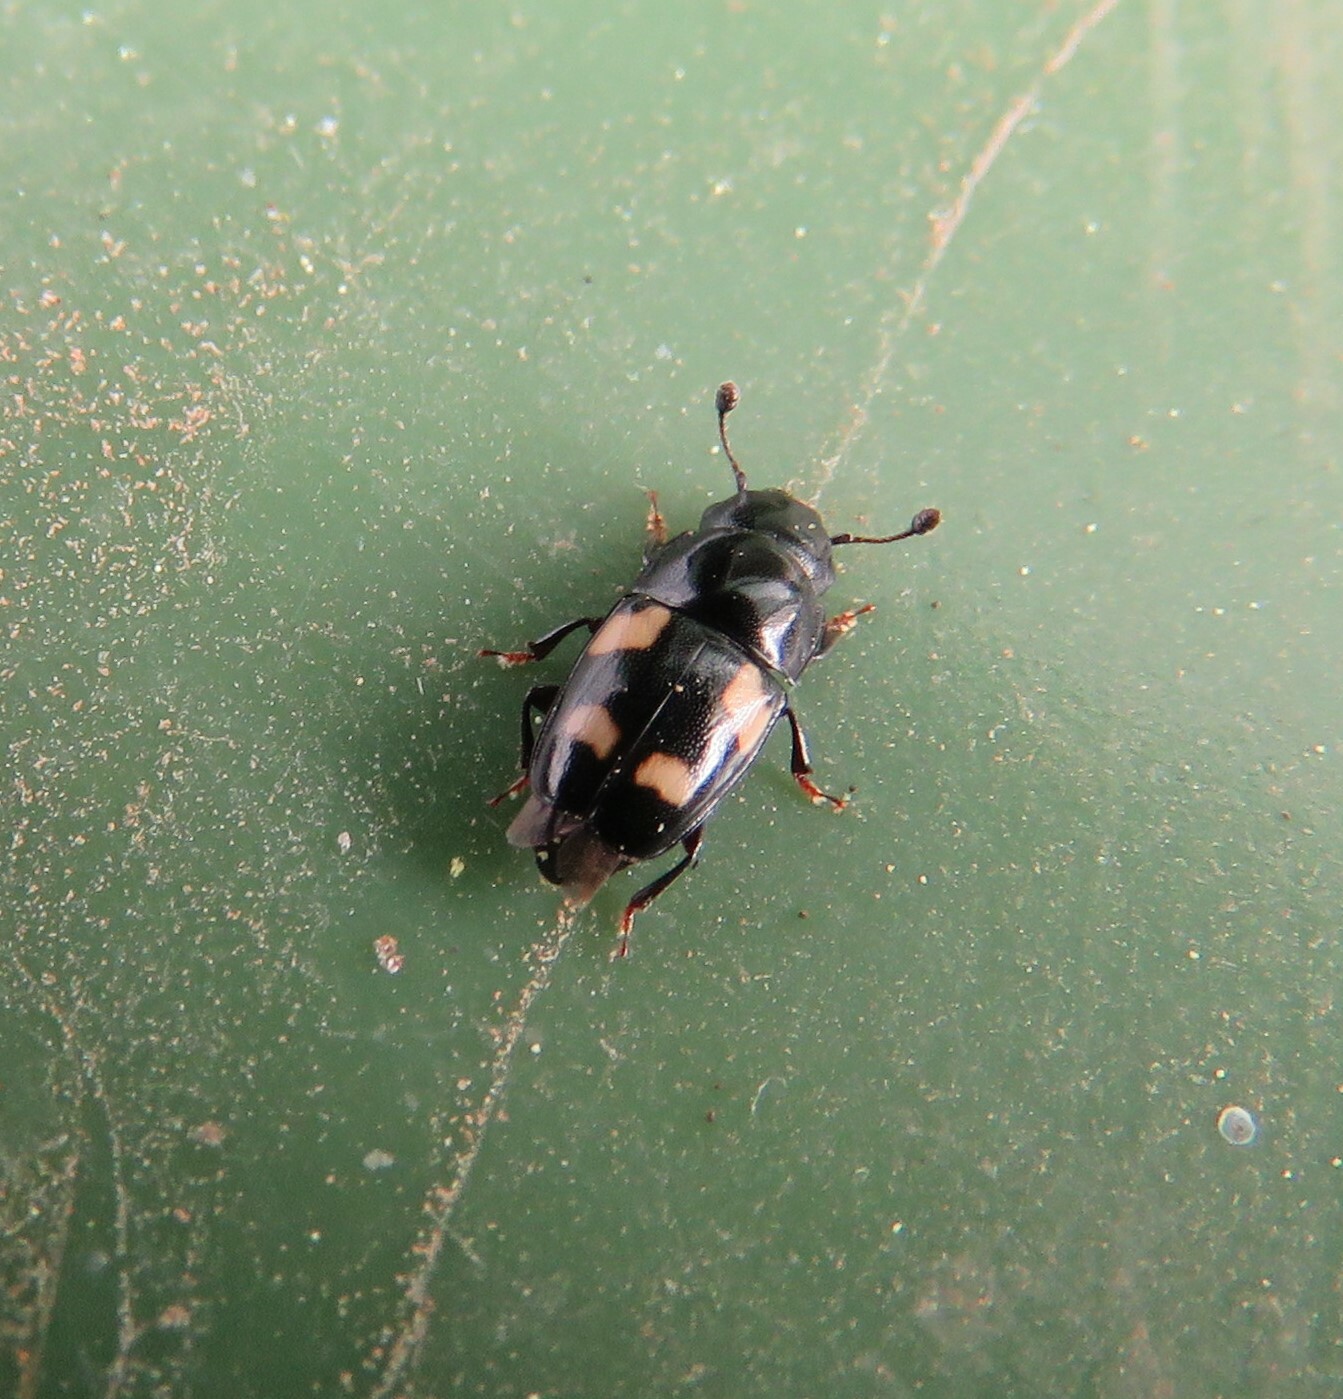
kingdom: Animalia
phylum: Arthropoda
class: Insecta
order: Coleoptera
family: Nitidulidae
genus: Glischrochilus
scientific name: Glischrochilus quadrisignatus
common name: Picnic beetle
